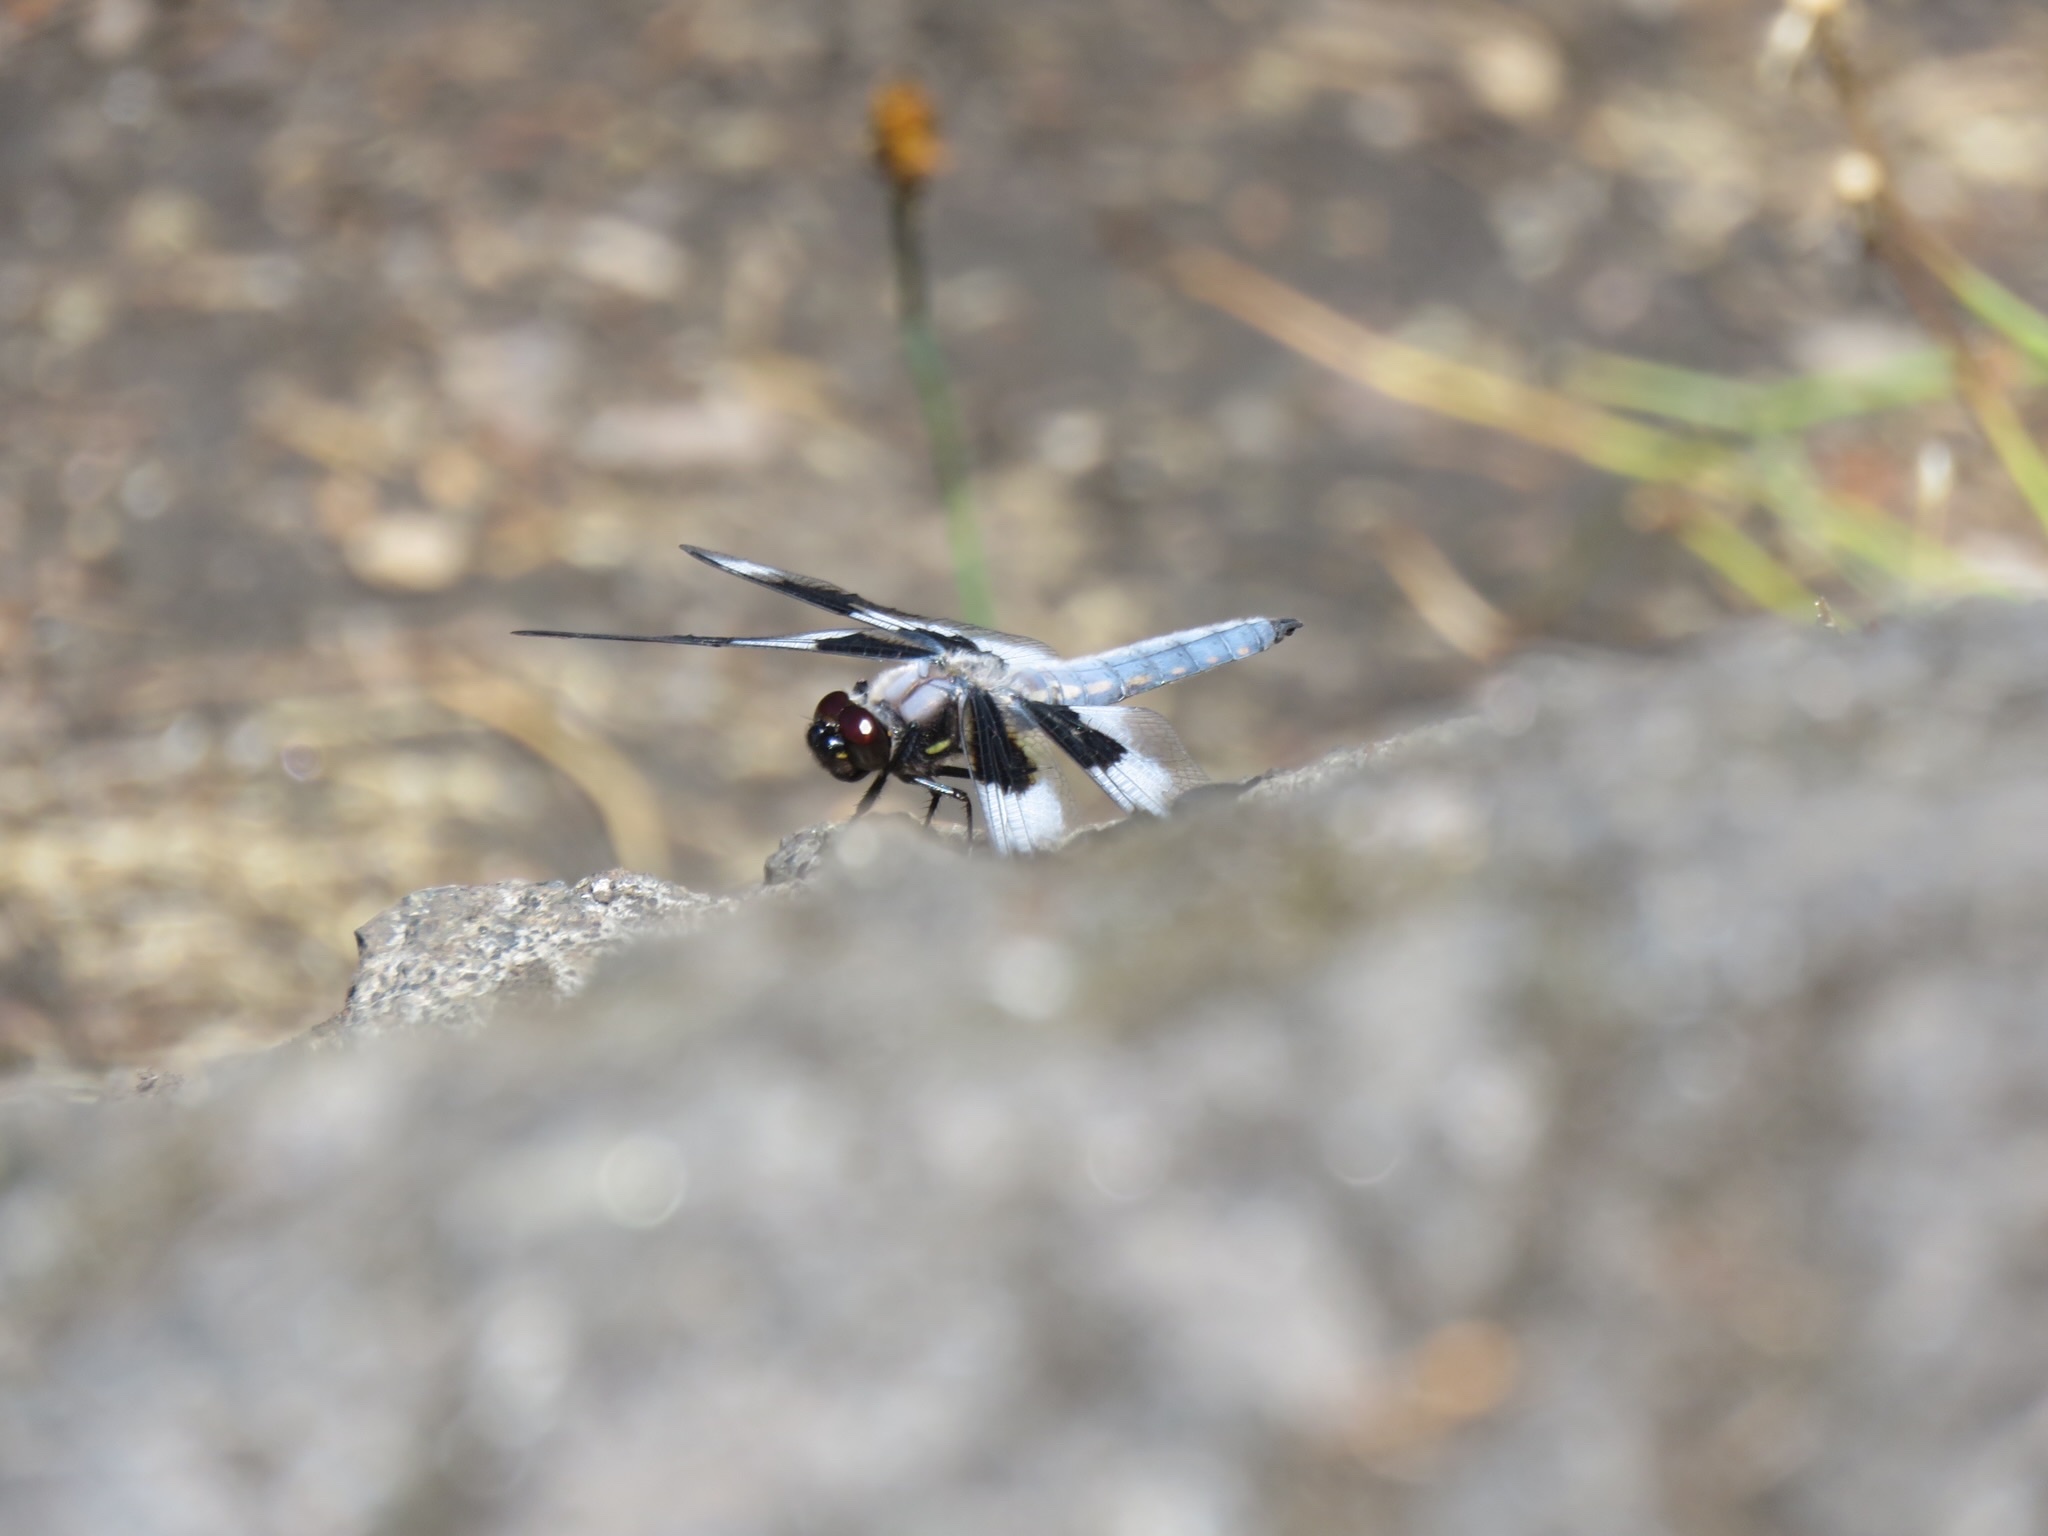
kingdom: Animalia
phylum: Arthropoda
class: Insecta
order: Odonata
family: Libellulidae
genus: Libellula
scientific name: Libellula forensis
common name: Eight-spotted skimmer
